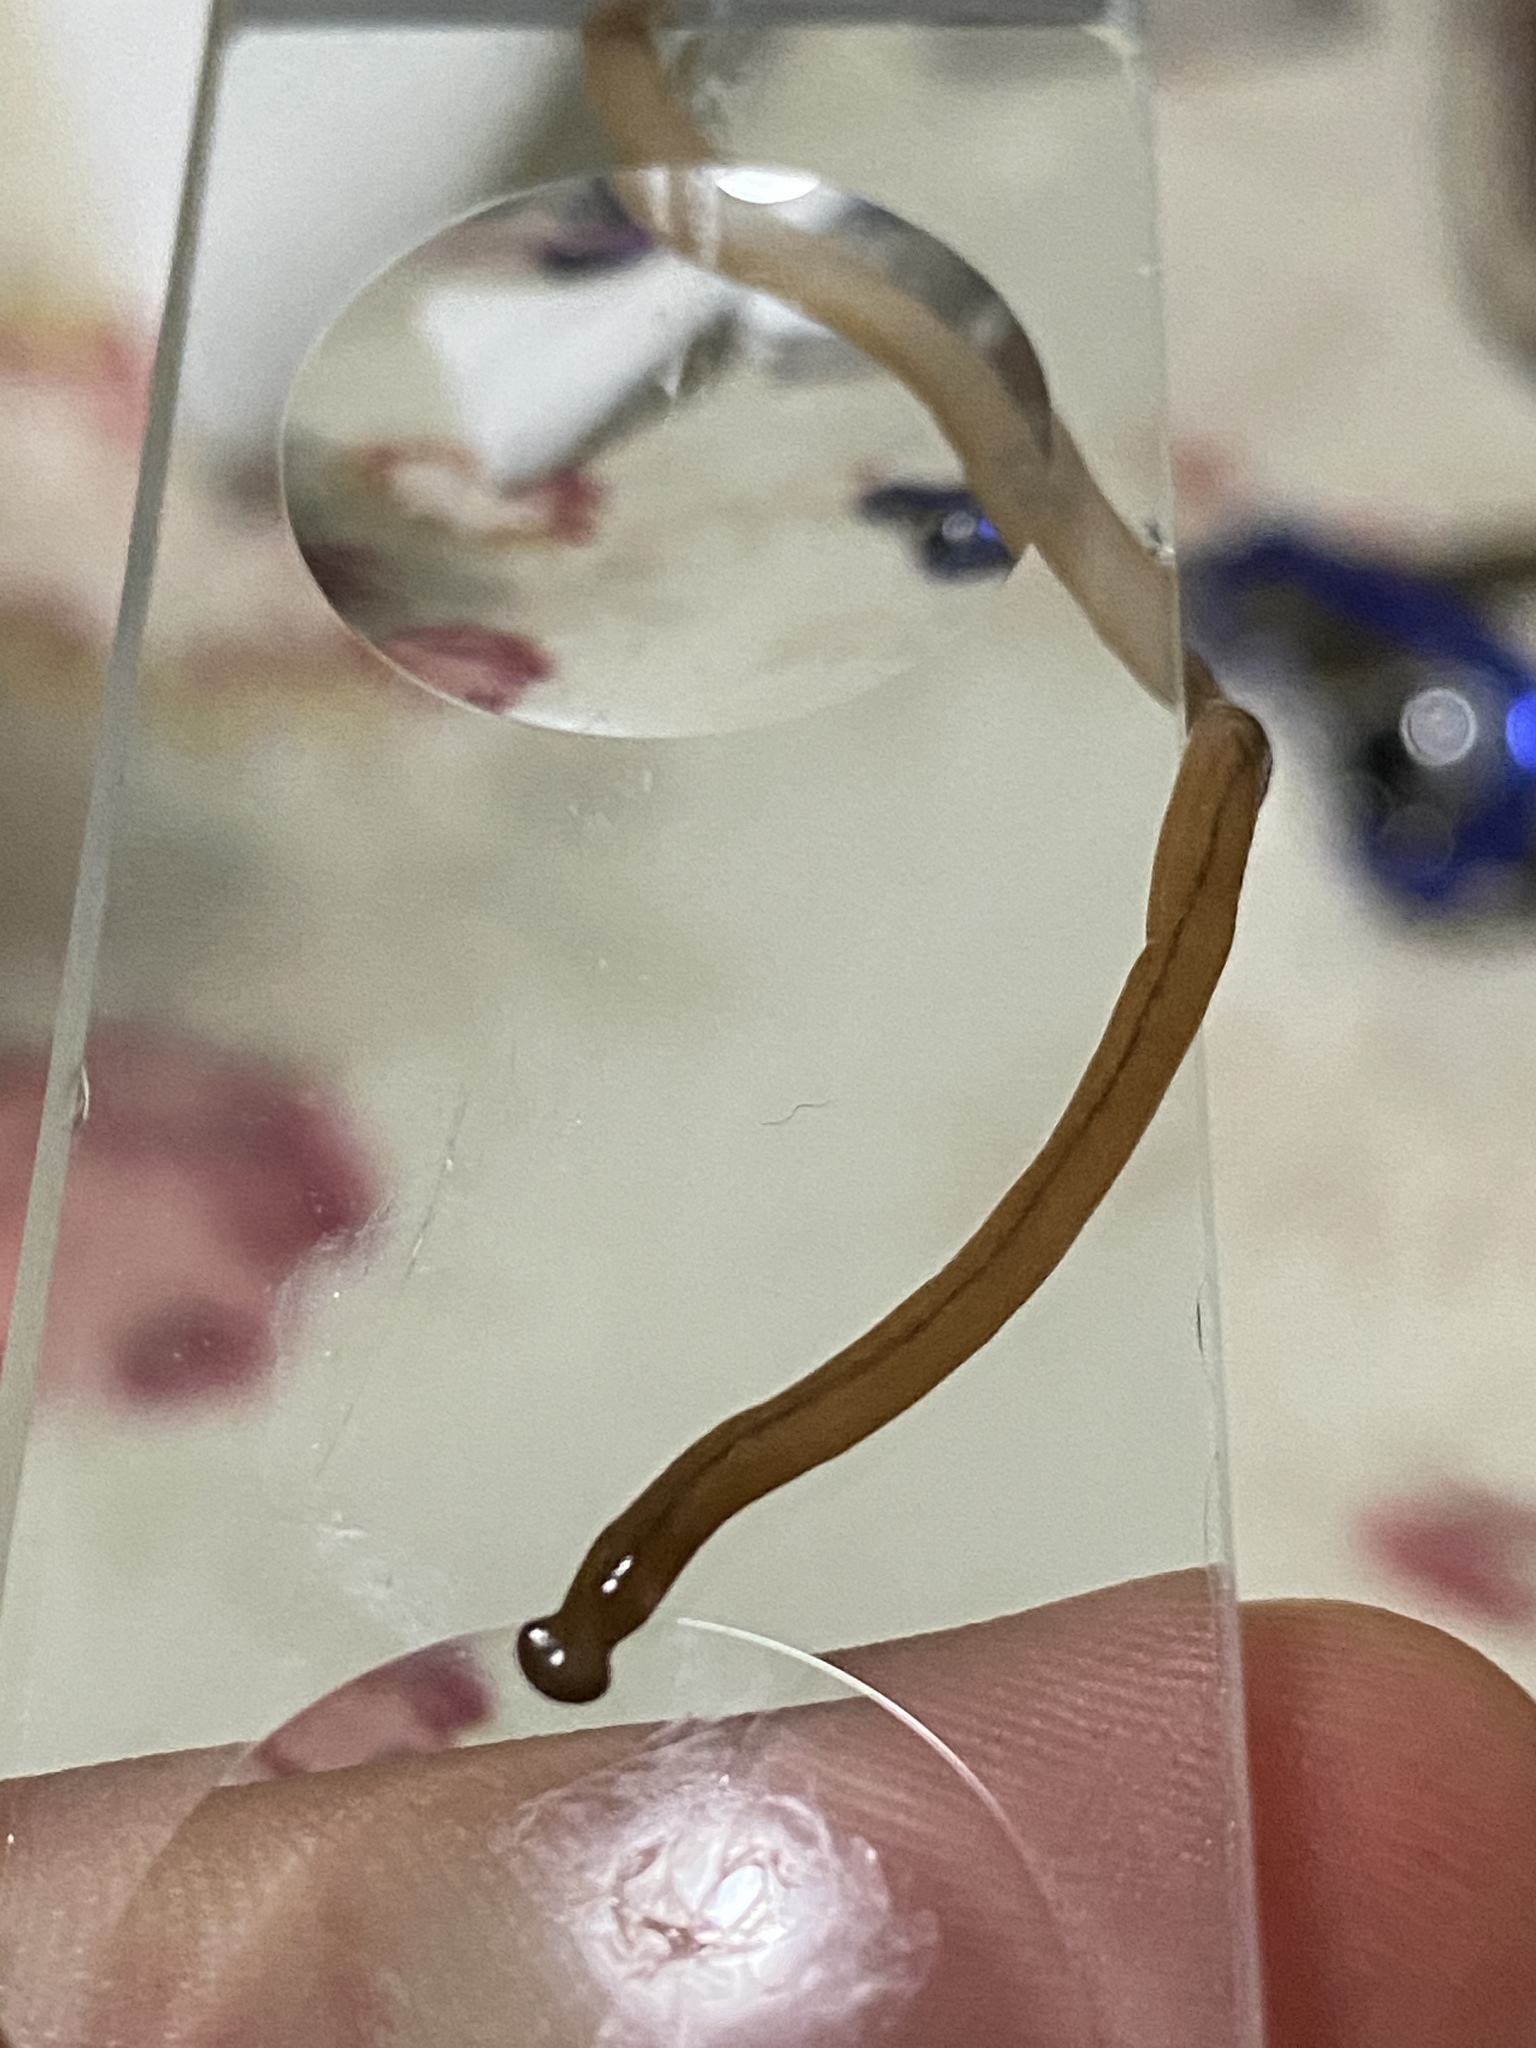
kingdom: Animalia
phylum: Platyhelminthes
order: Tricladida
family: Geoplanidae
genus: Bipalium
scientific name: Bipalium adventitium
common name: Land planarian
